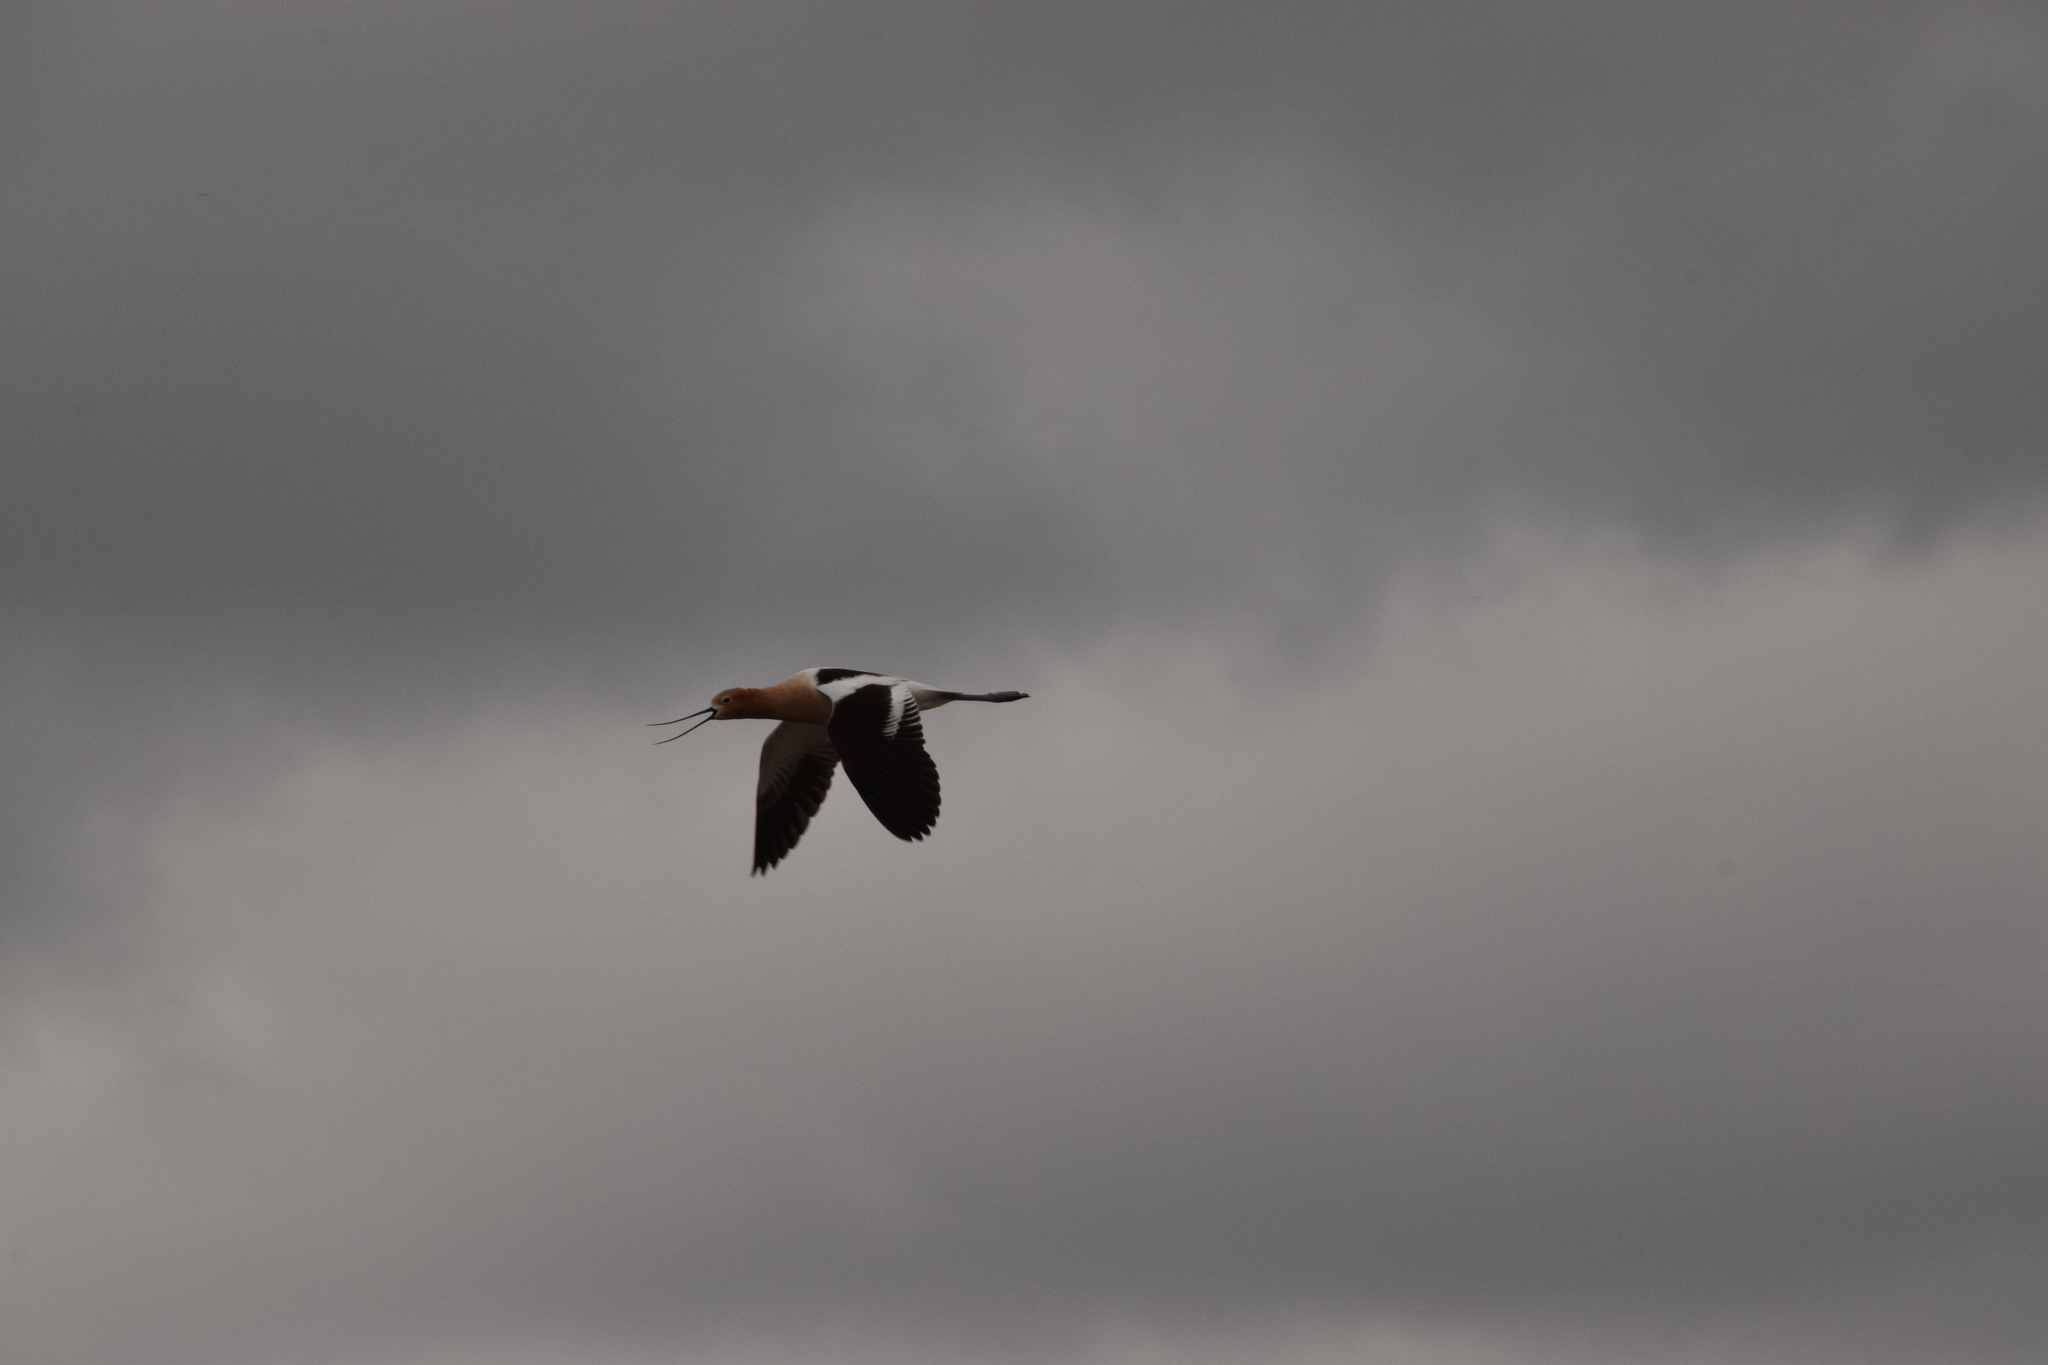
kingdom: Animalia
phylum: Chordata
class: Aves
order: Charadriiformes
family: Recurvirostridae
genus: Recurvirostra
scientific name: Recurvirostra americana
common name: American avocet
